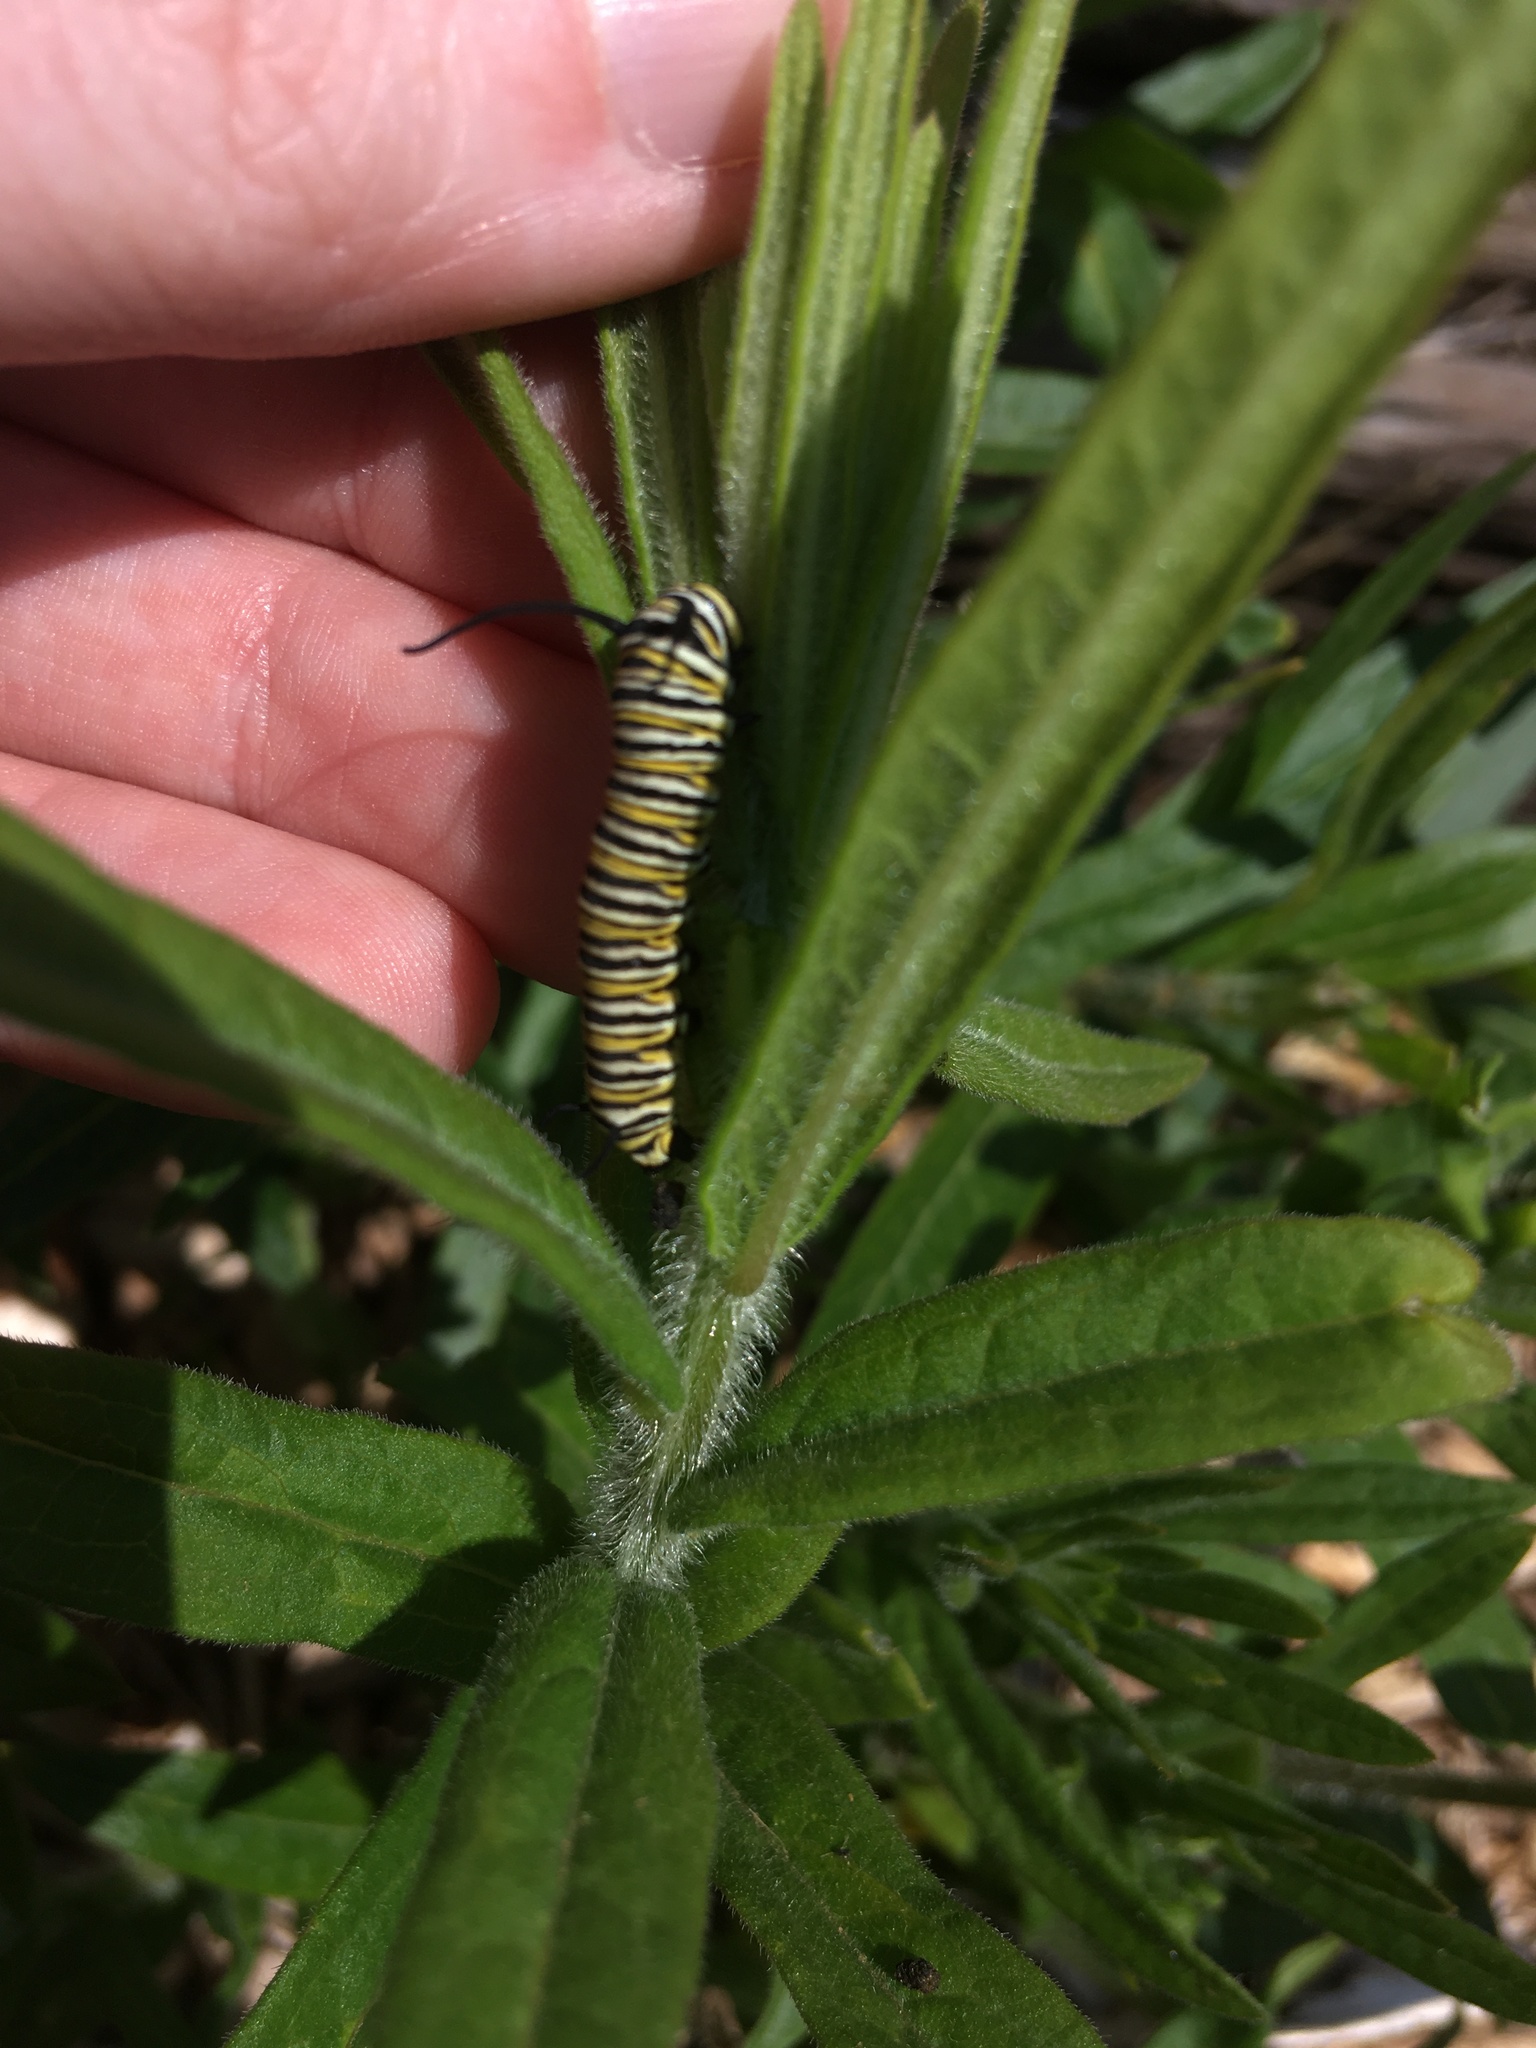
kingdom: Animalia
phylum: Arthropoda
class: Insecta
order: Lepidoptera
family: Nymphalidae
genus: Danaus
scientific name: Danaus plexippus
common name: Monarch
